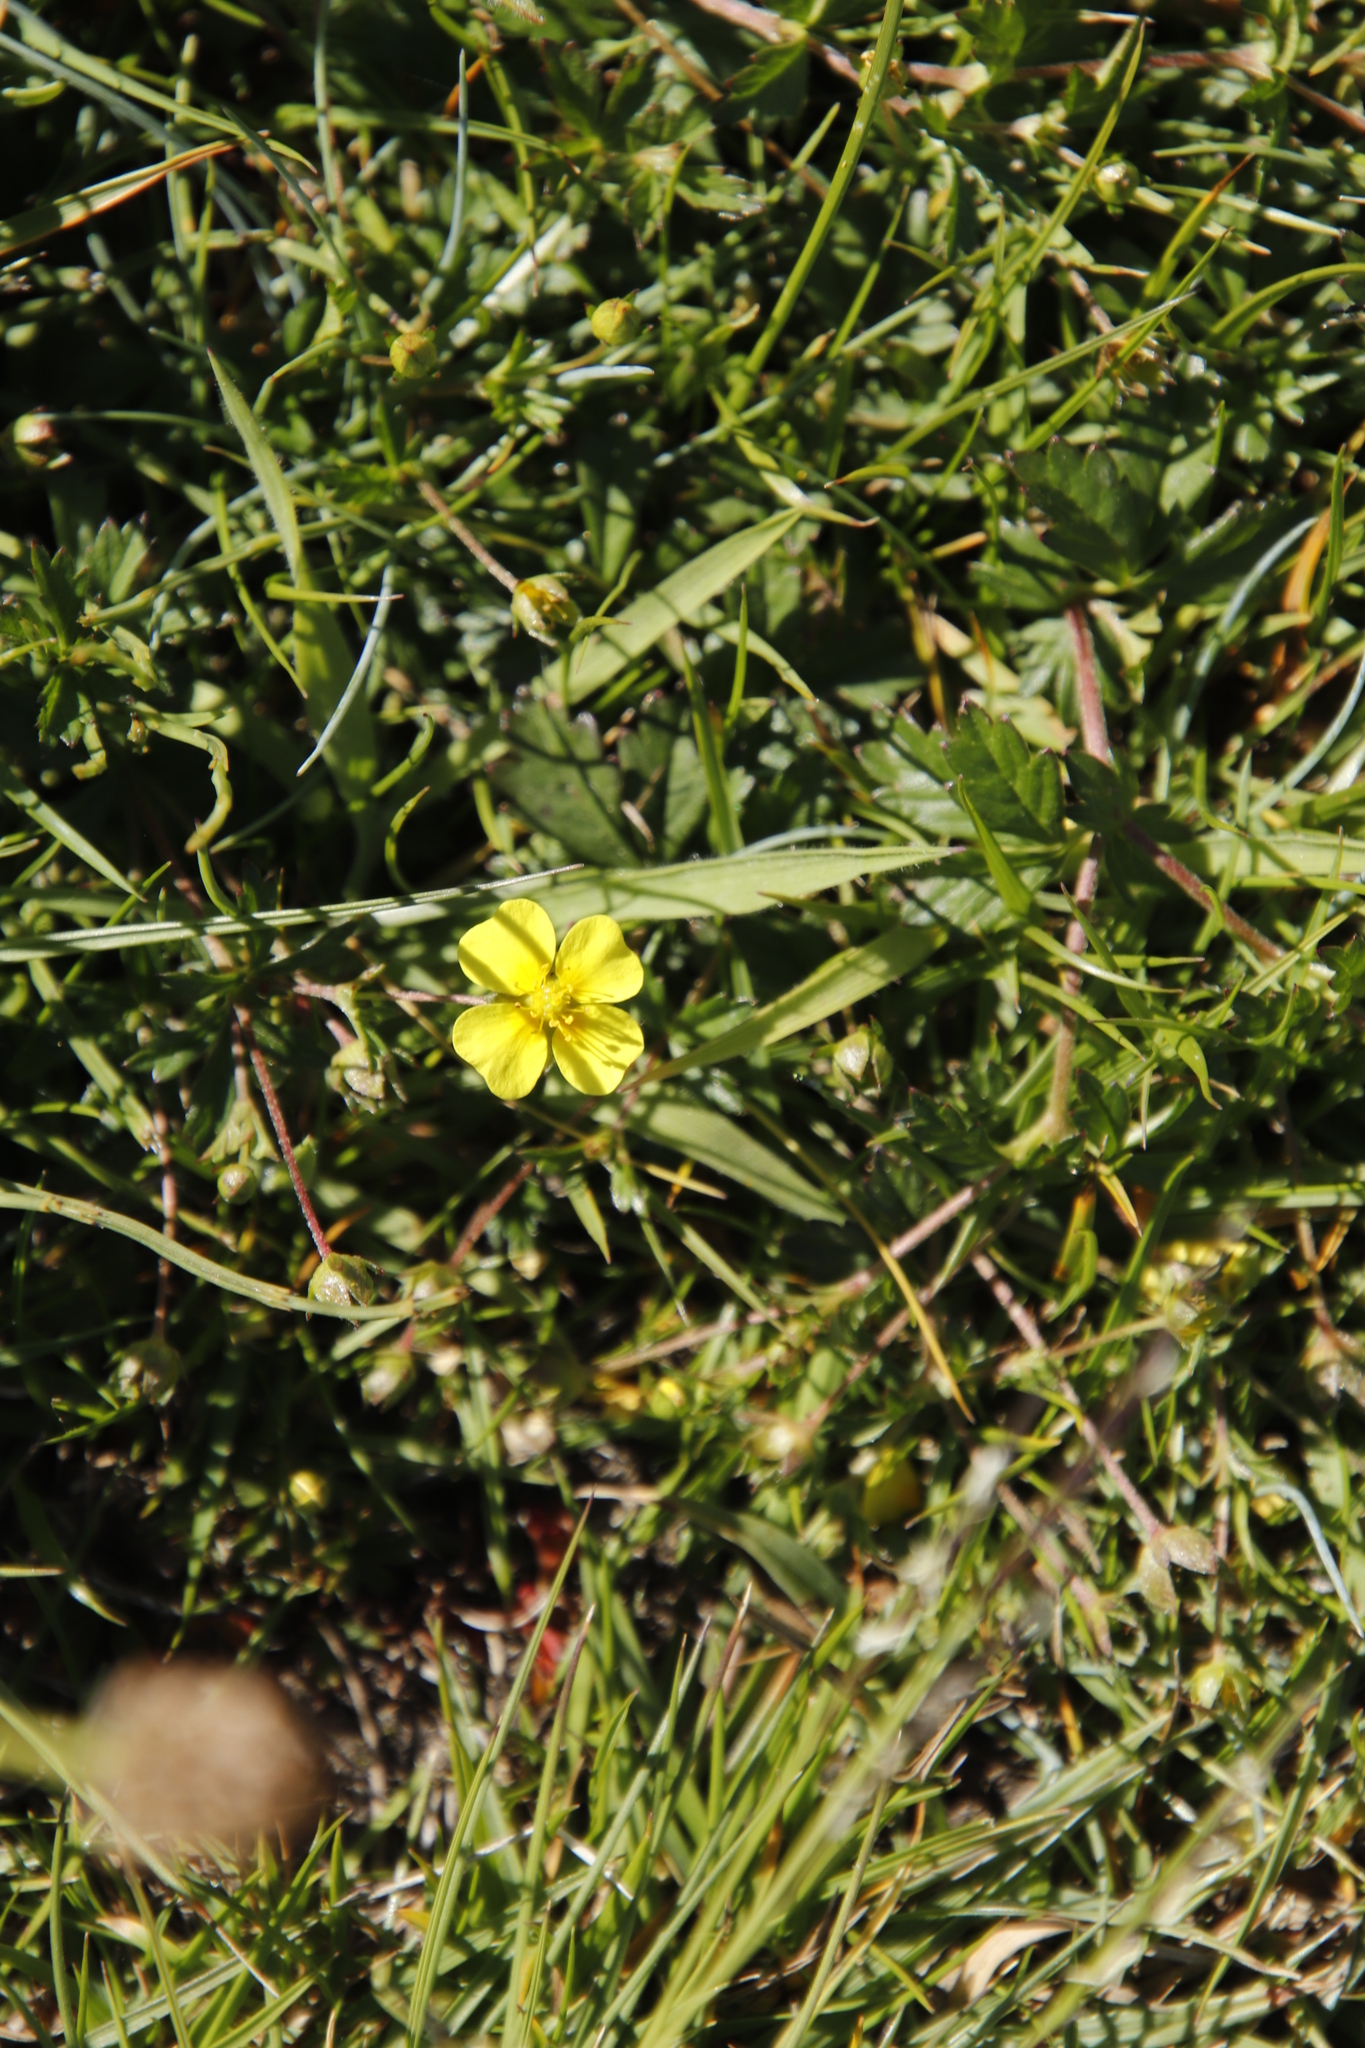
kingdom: Plantae
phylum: Tracheophyta
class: Magnoliopsida
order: Rosales
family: Rosaceae
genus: Potentilla
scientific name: Potentilla erecta
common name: Tormentil
